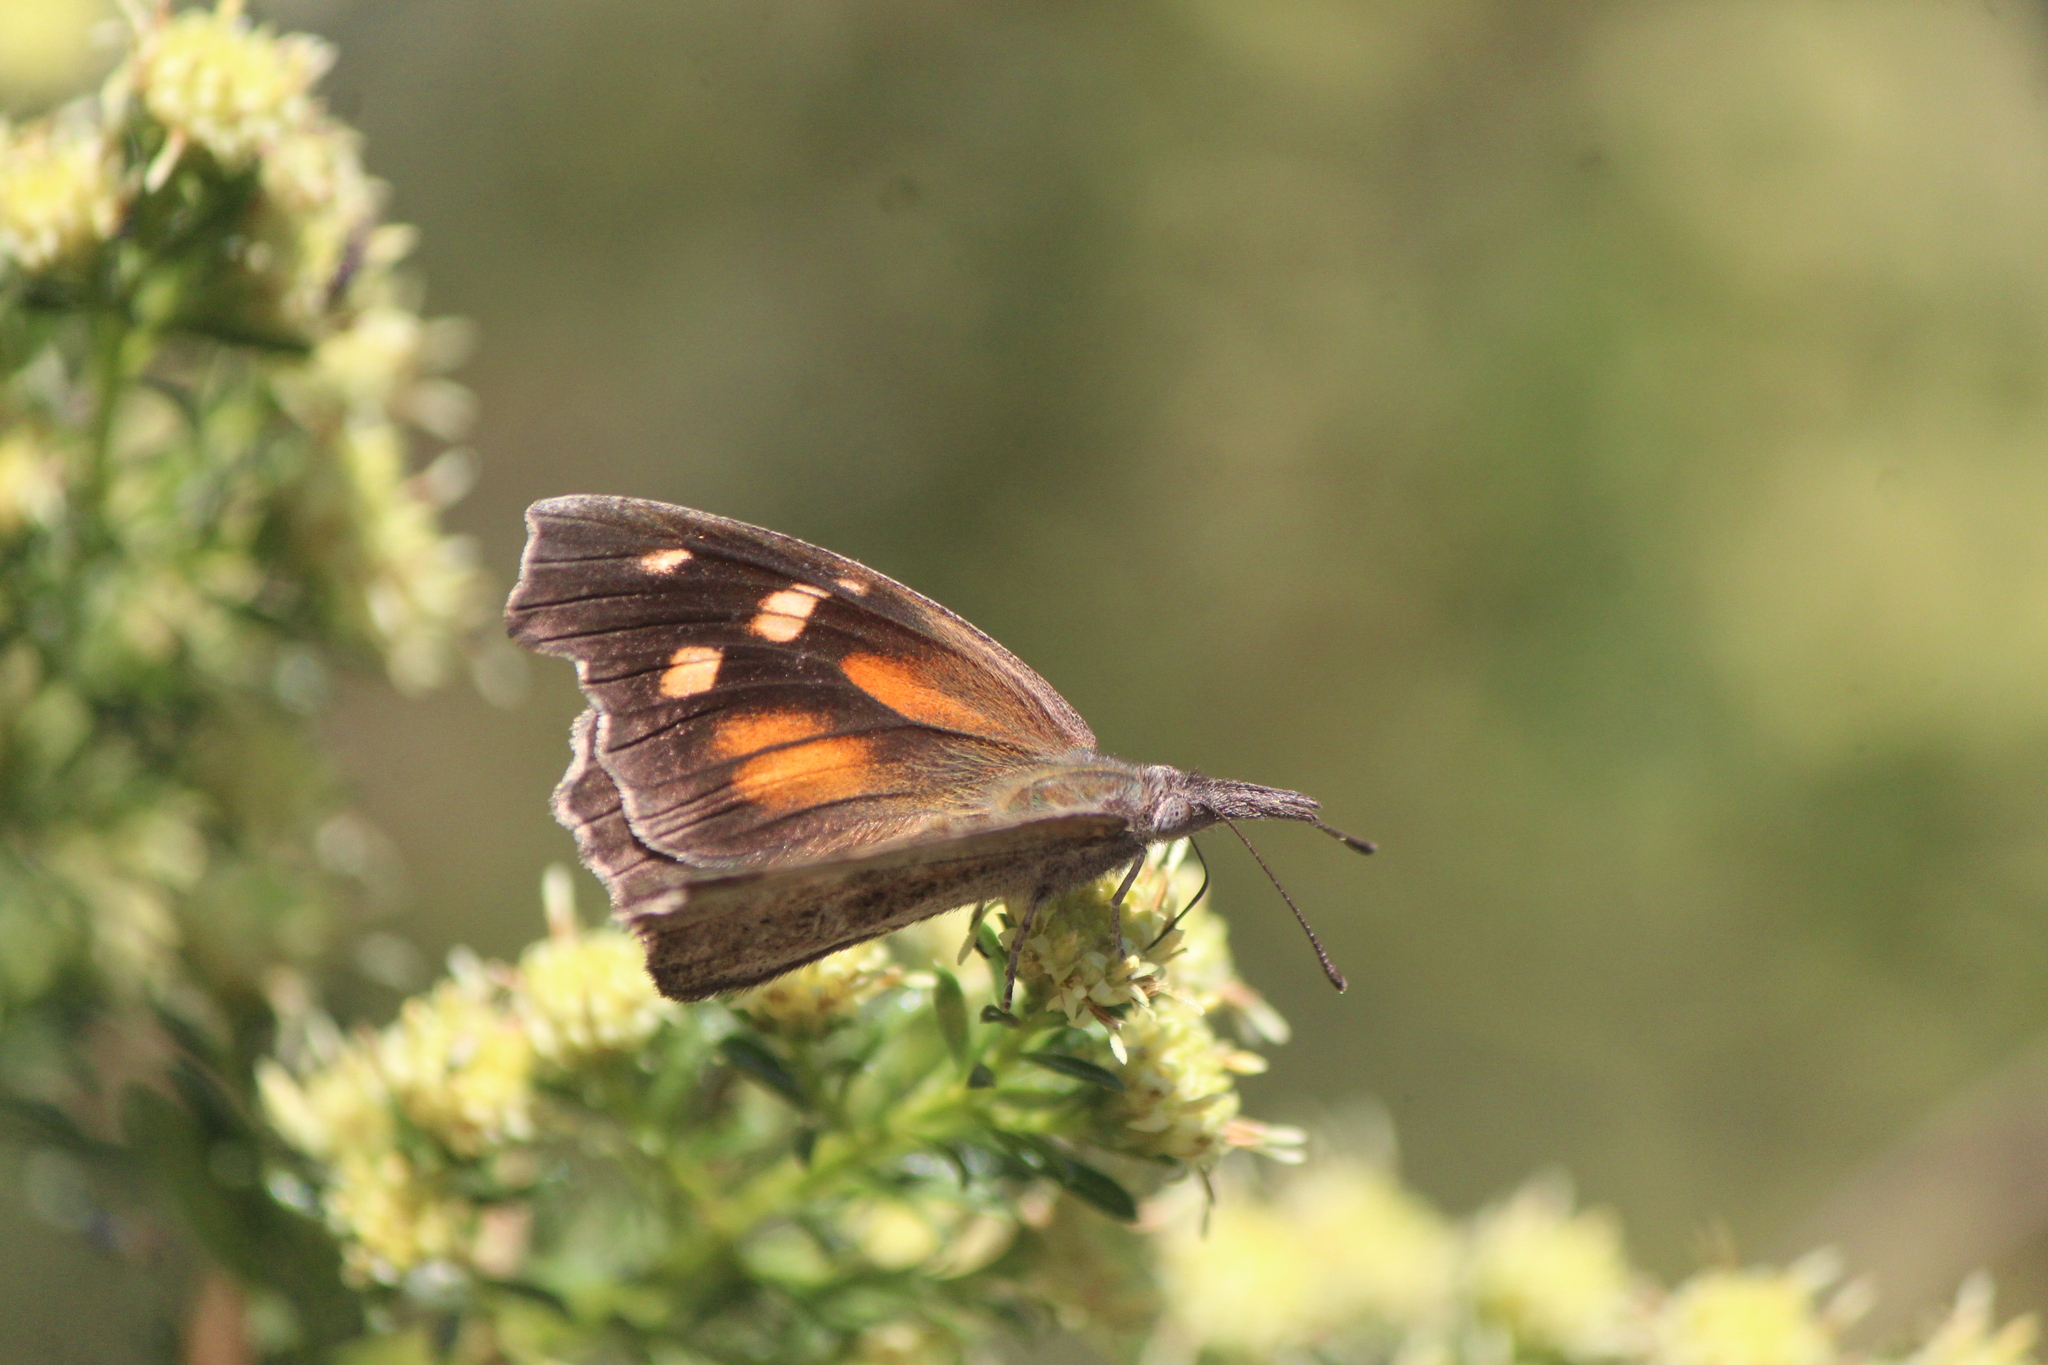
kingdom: Animalia
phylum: Arthropoda
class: Insecta
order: Lepidoptera
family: Nymphalidae
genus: Libytheana
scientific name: Libytheana carinenta
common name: American snout
